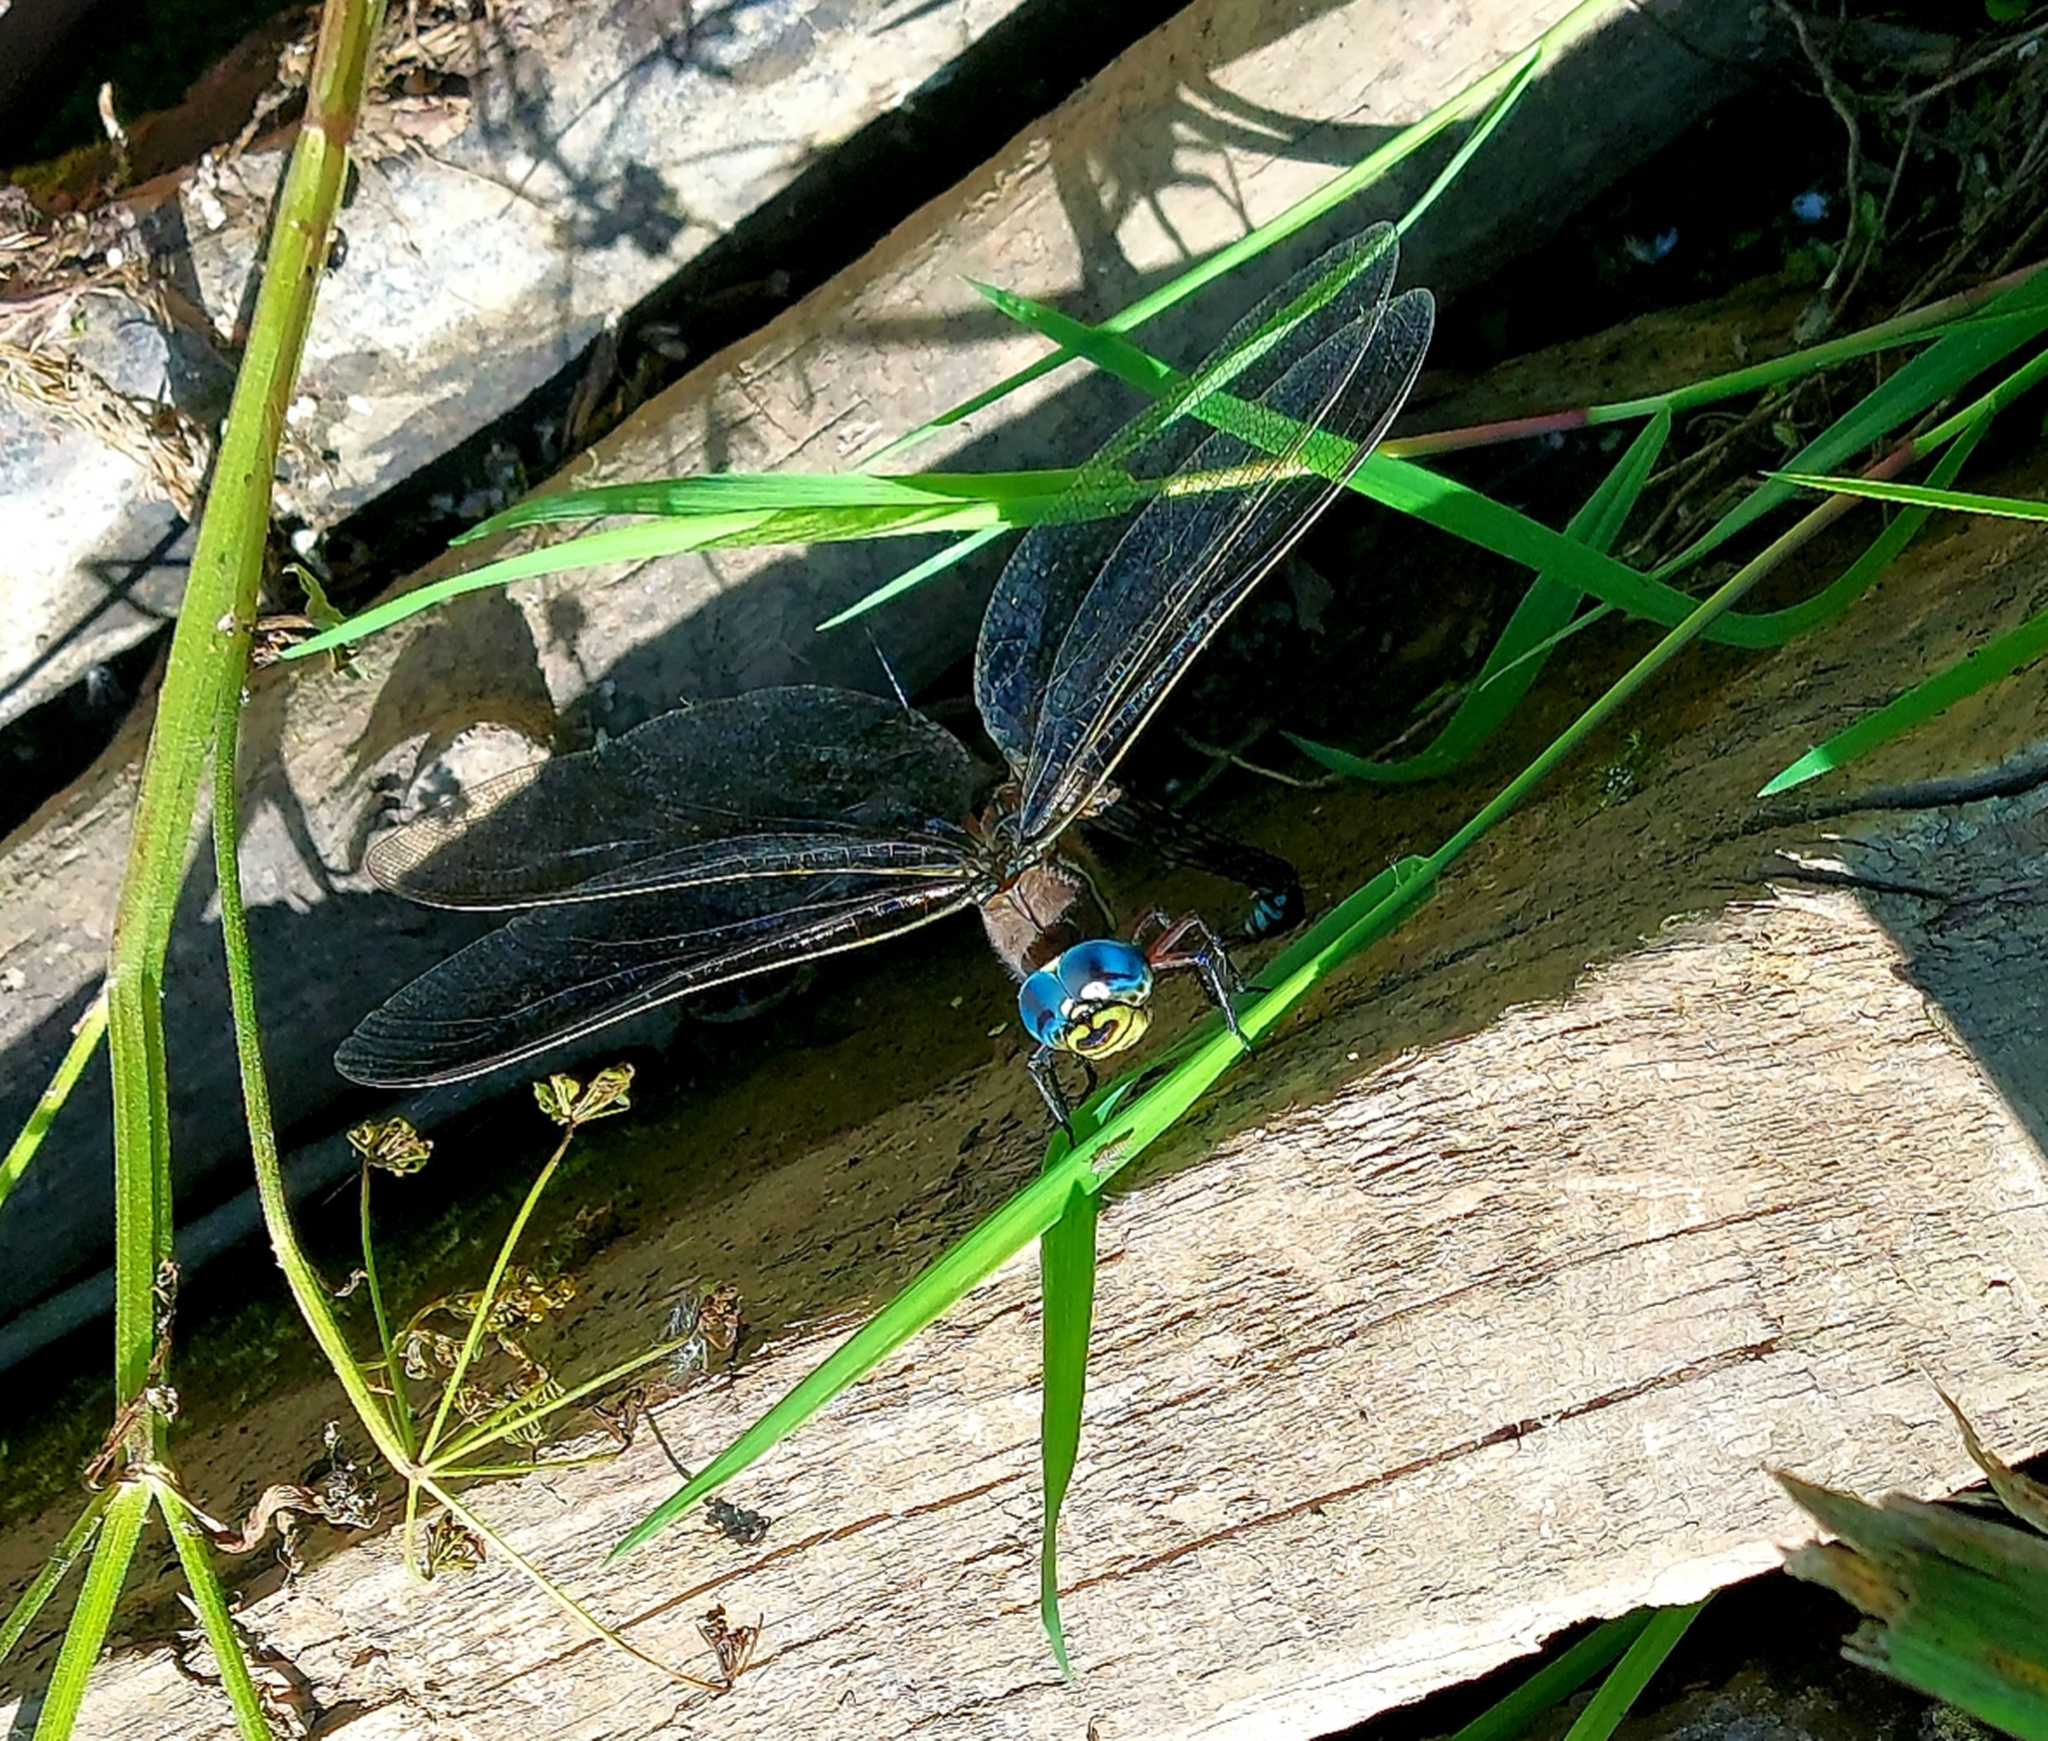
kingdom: Animalia
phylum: Arthropoda
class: Insecta
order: Odonata
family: Aeshnidae
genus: Aeshna
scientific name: Aeshna juncea
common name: Moorland hawker
